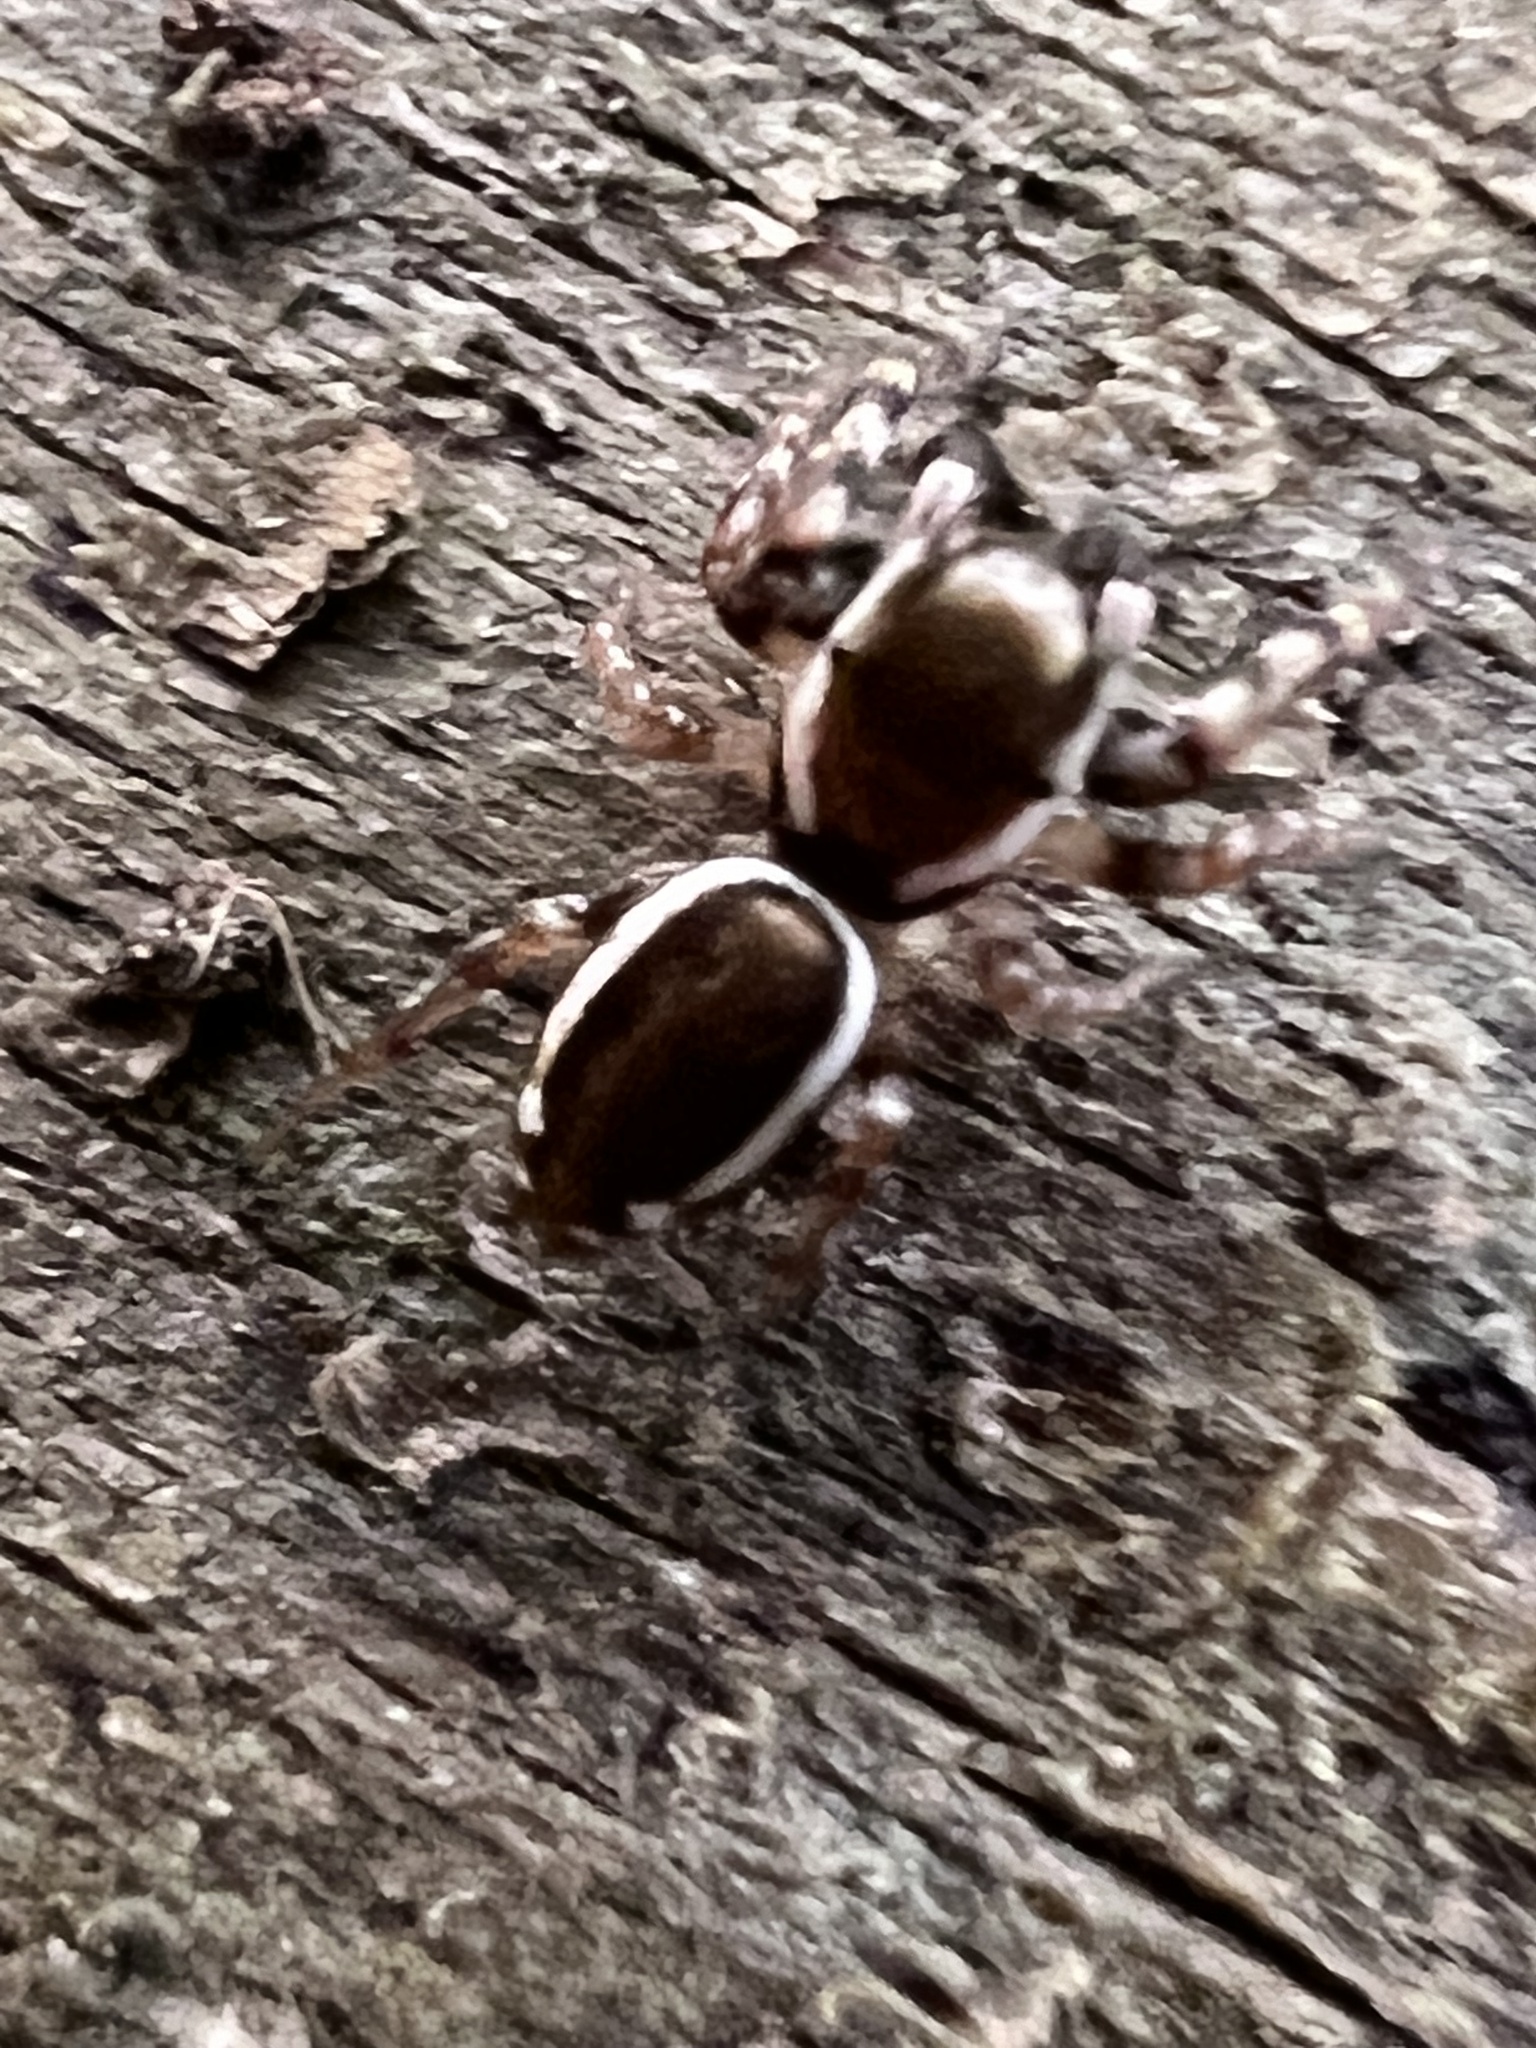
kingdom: Animalia
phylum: Arthropoda
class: Arachnida
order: Araneae
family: Salticidae
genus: Pelegrina
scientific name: Pelegrina proterva
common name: Common white-cheeked jumping spider
